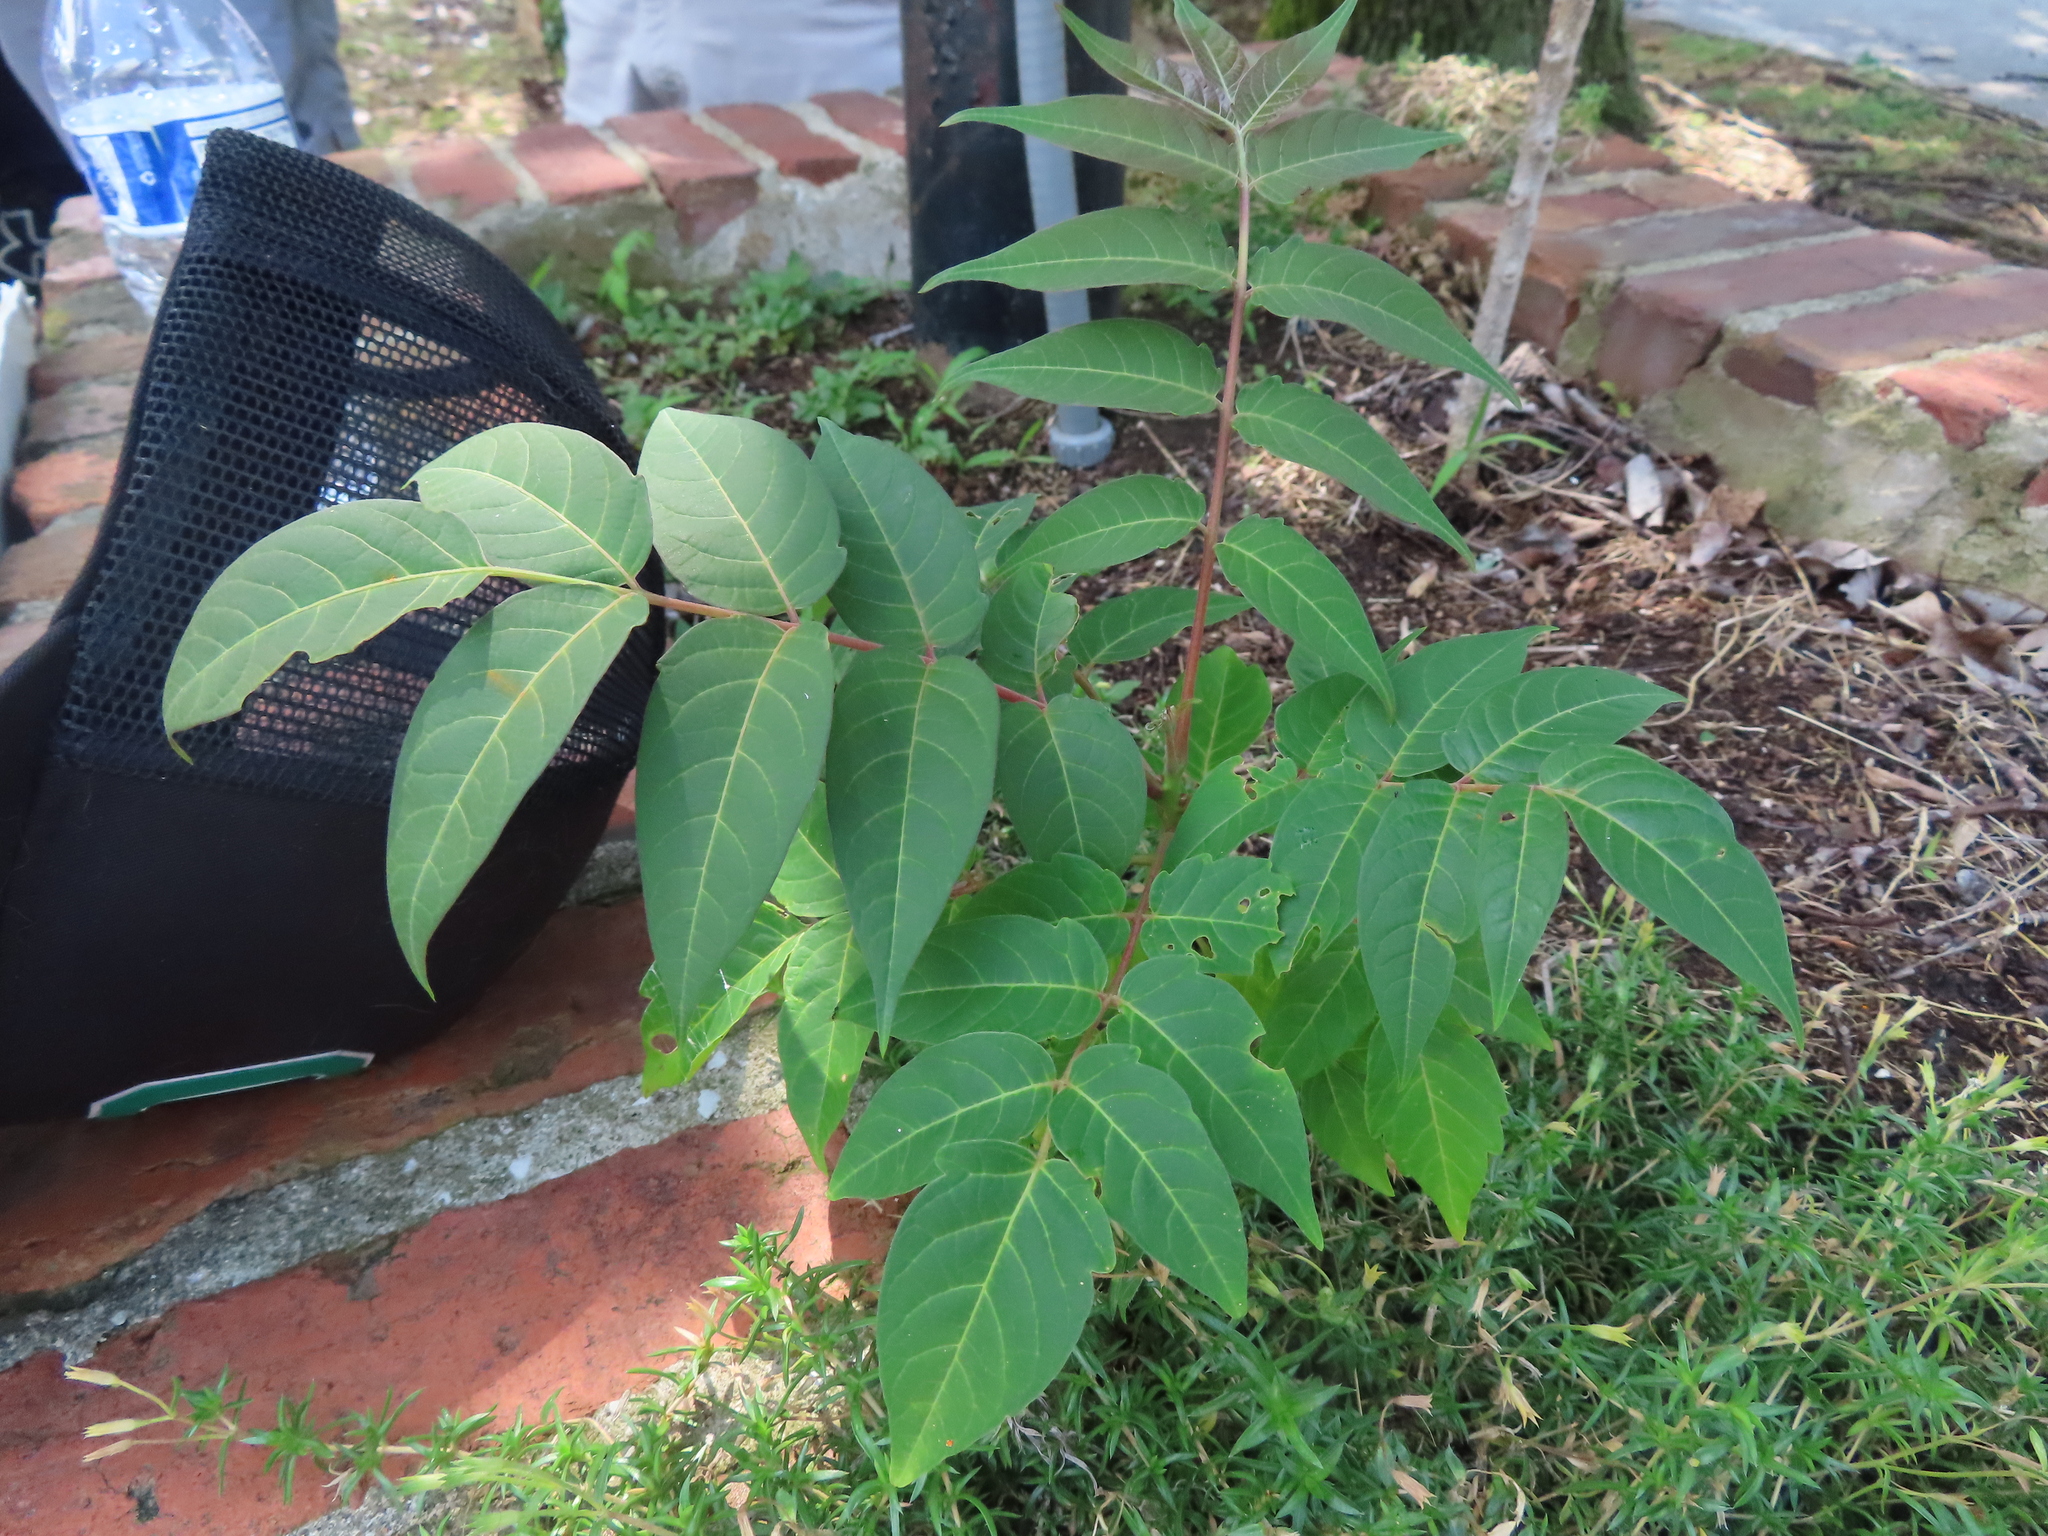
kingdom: Plantae
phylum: Tracheophyta
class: Magnoliopsida
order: Sapindales
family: Simaroubaceae
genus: Ailanthus
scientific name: Ailanthus altissima
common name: Tree-of-heaven
